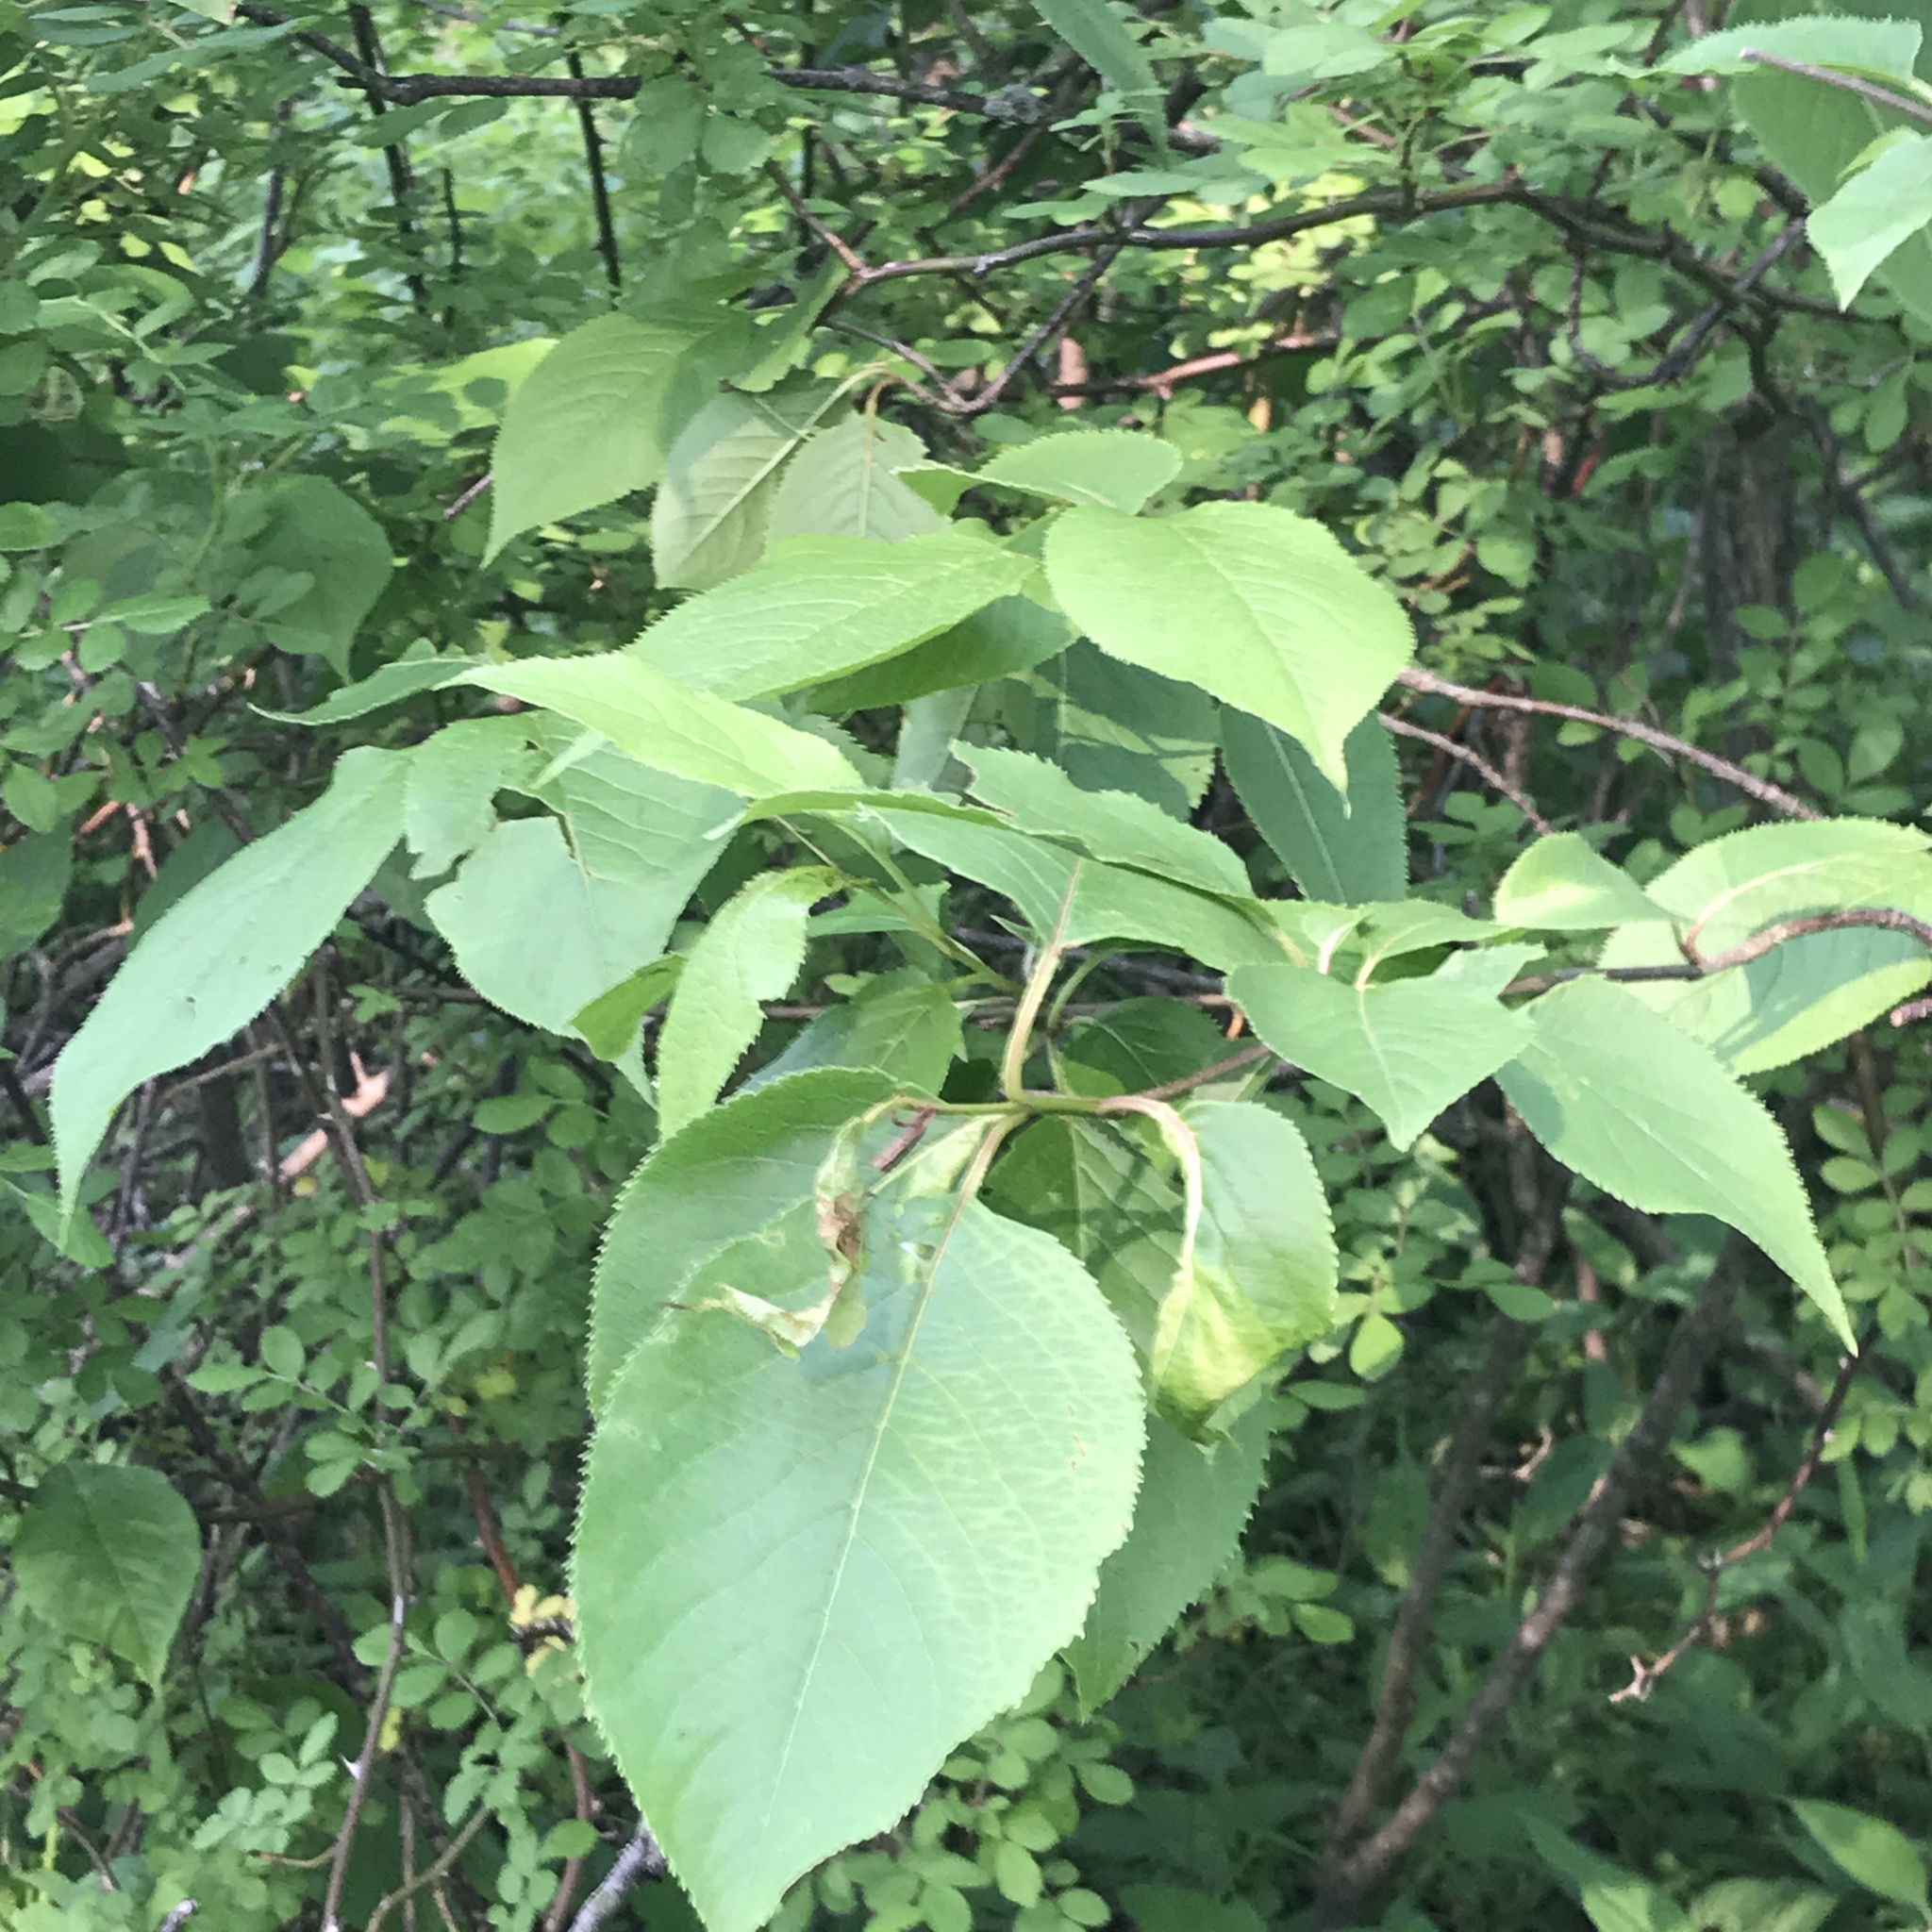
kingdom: Plantae
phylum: Tracheophyta
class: Magnoliopsida
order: Dipsacales
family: Viburnaceae
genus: Viburnum
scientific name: Viburnum lentago
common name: Black haw
